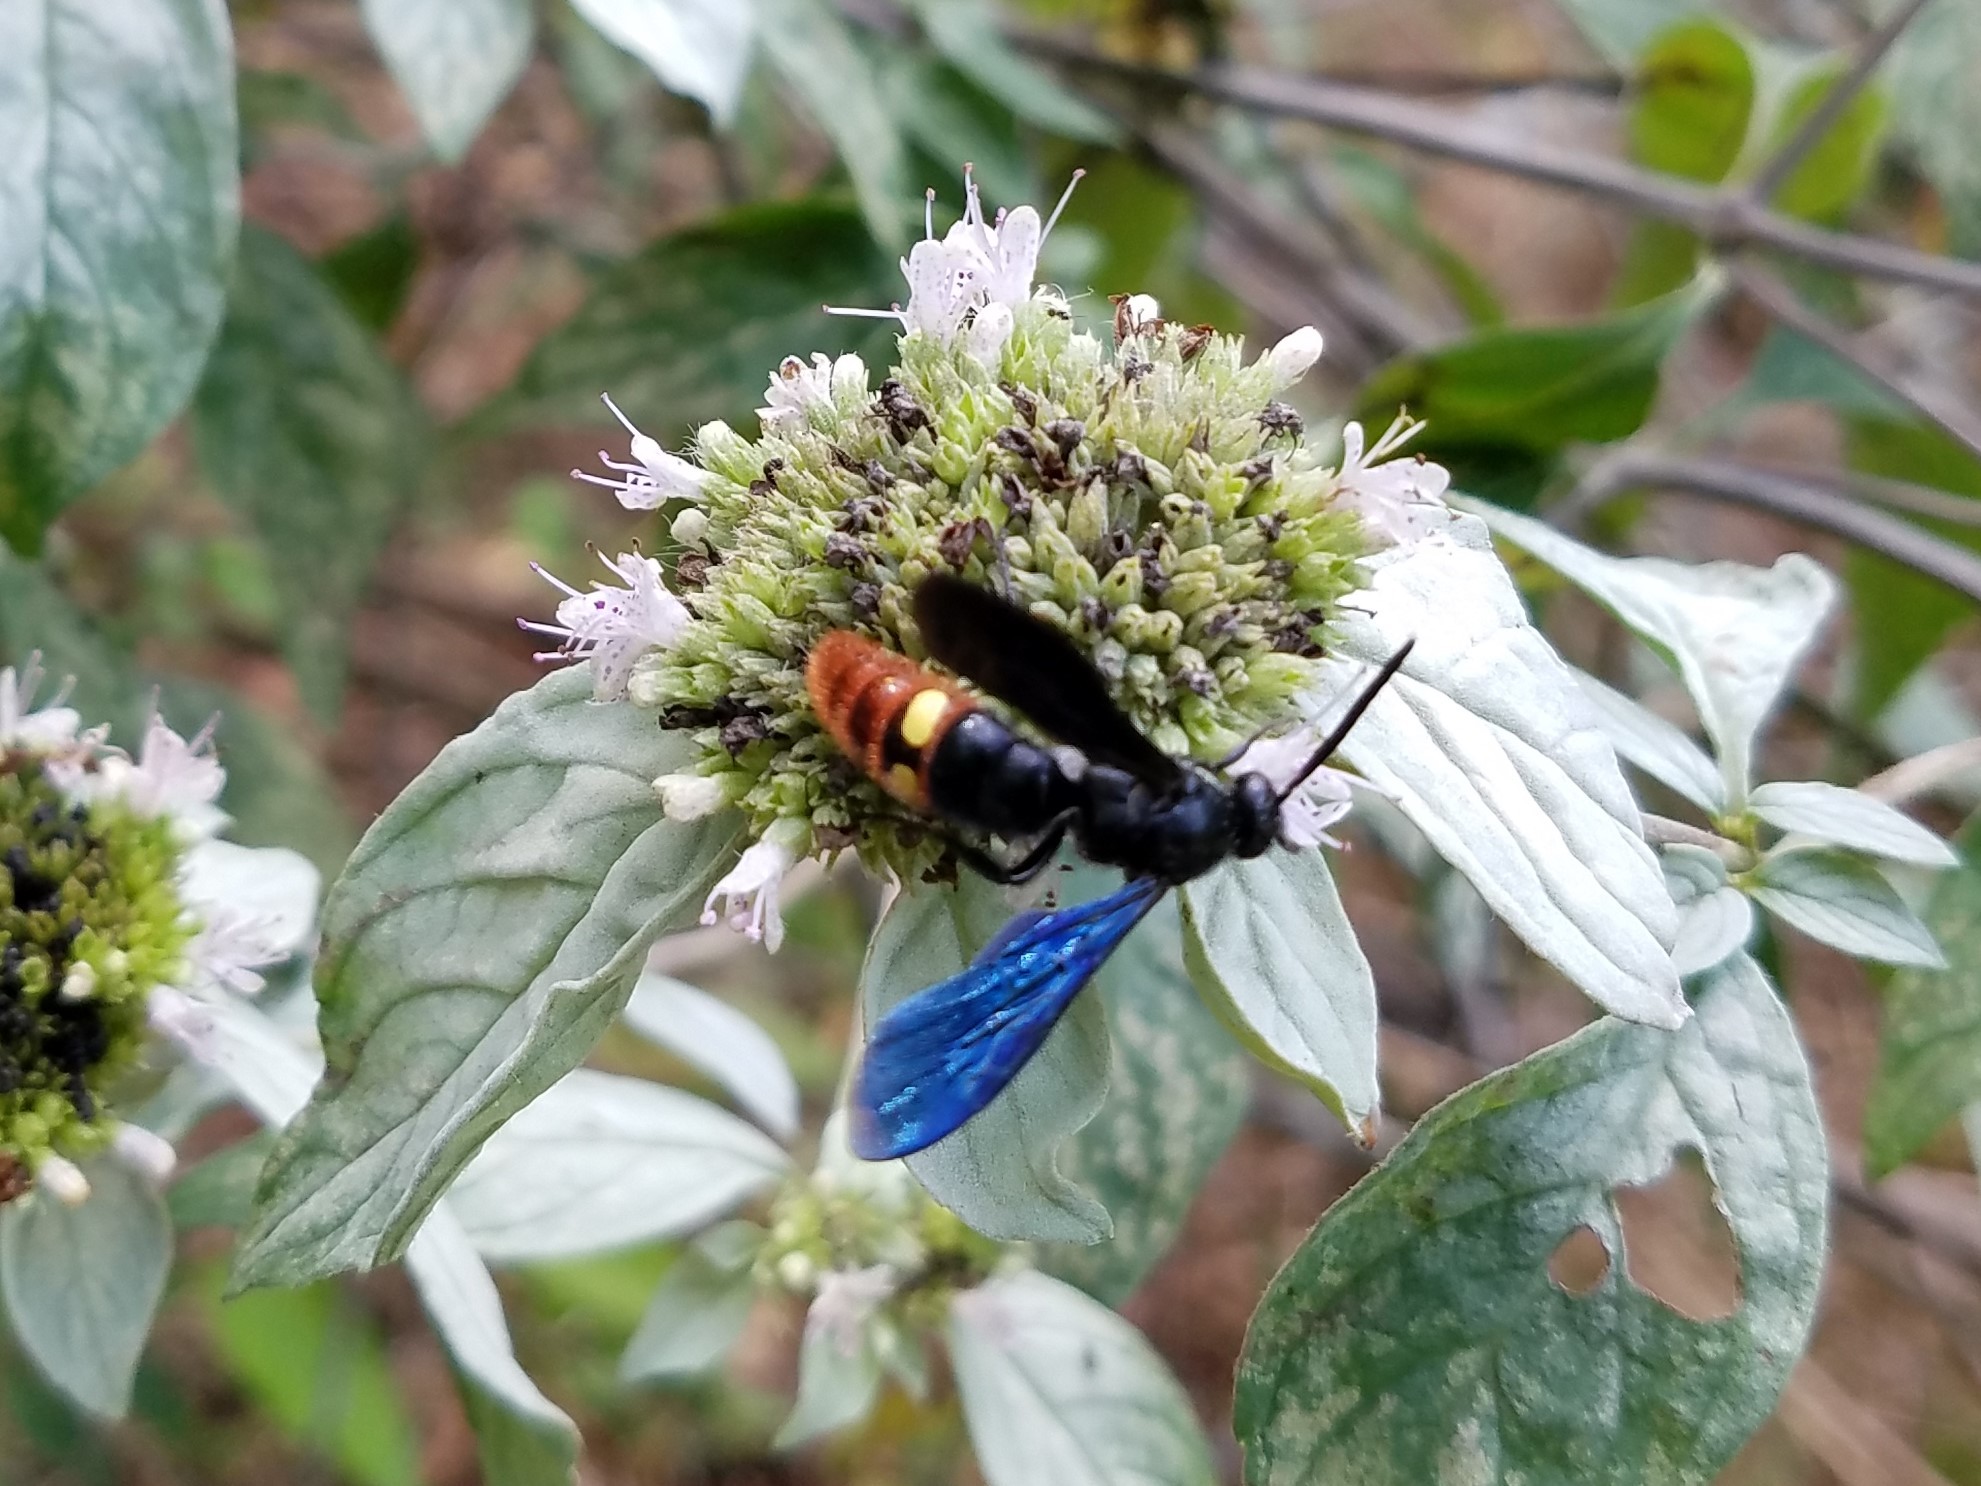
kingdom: Animalia
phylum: Arthropoda
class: Insecta
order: Hymenoptera
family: Scoliidae
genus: Scolia
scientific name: Scolia dubia
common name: Blue-winged scoliid wasp
